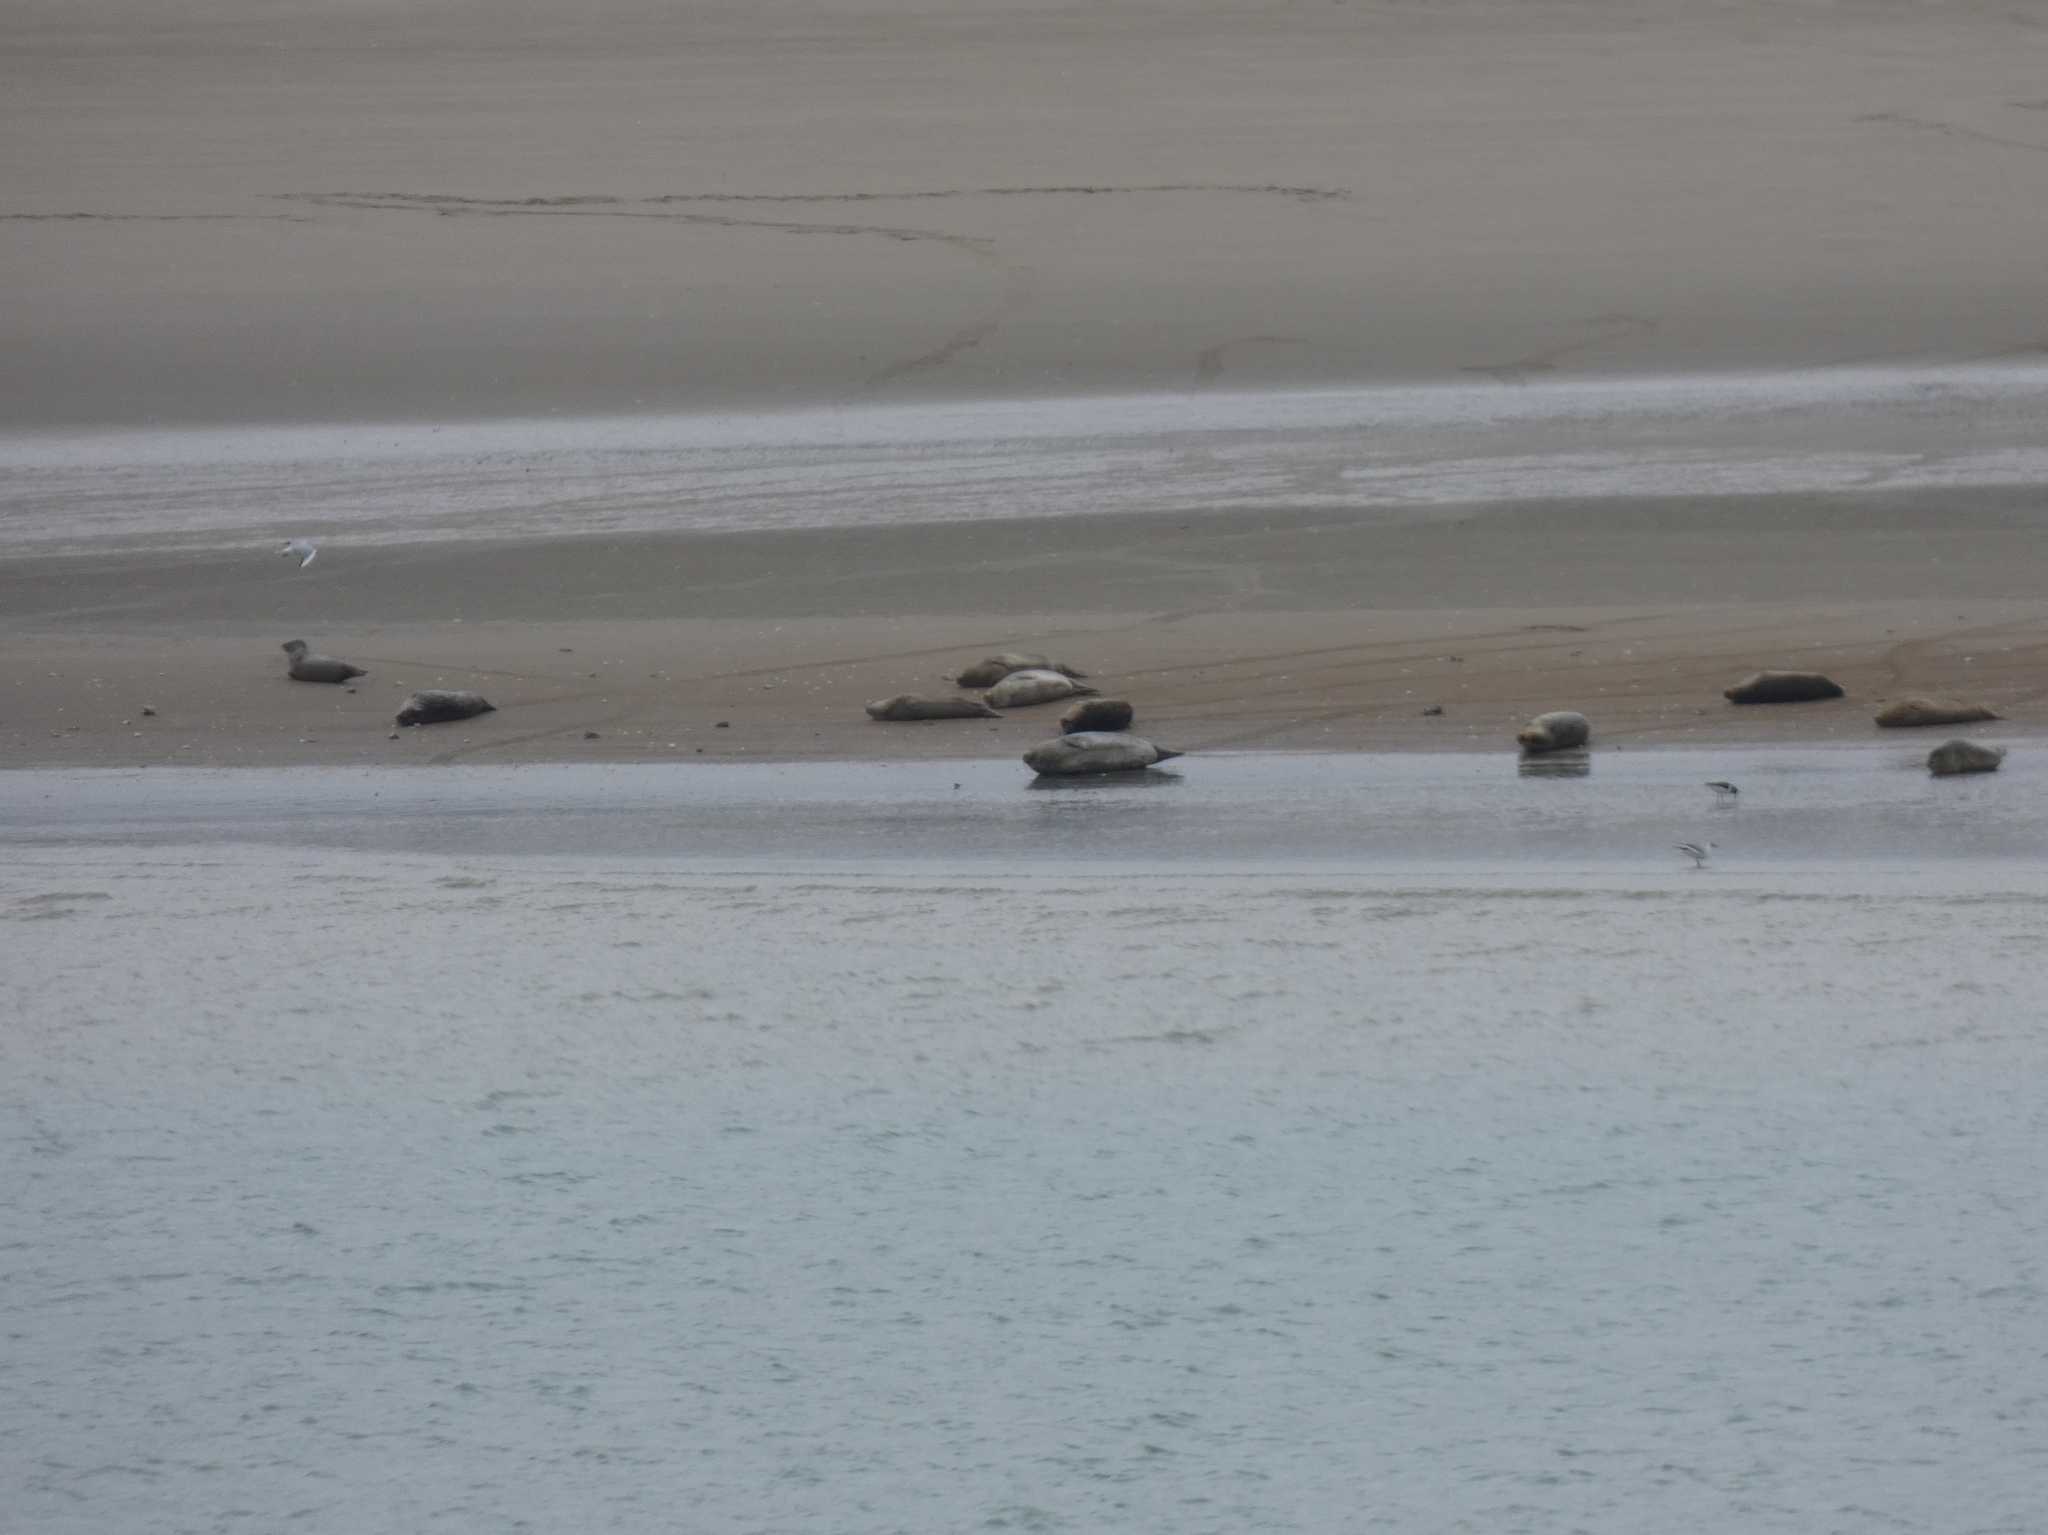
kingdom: Animalia
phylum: Chordata
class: Mammalia
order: Carnivora
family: Phocidae
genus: Phoca
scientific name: Phoca vitulina
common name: Harbor seal
